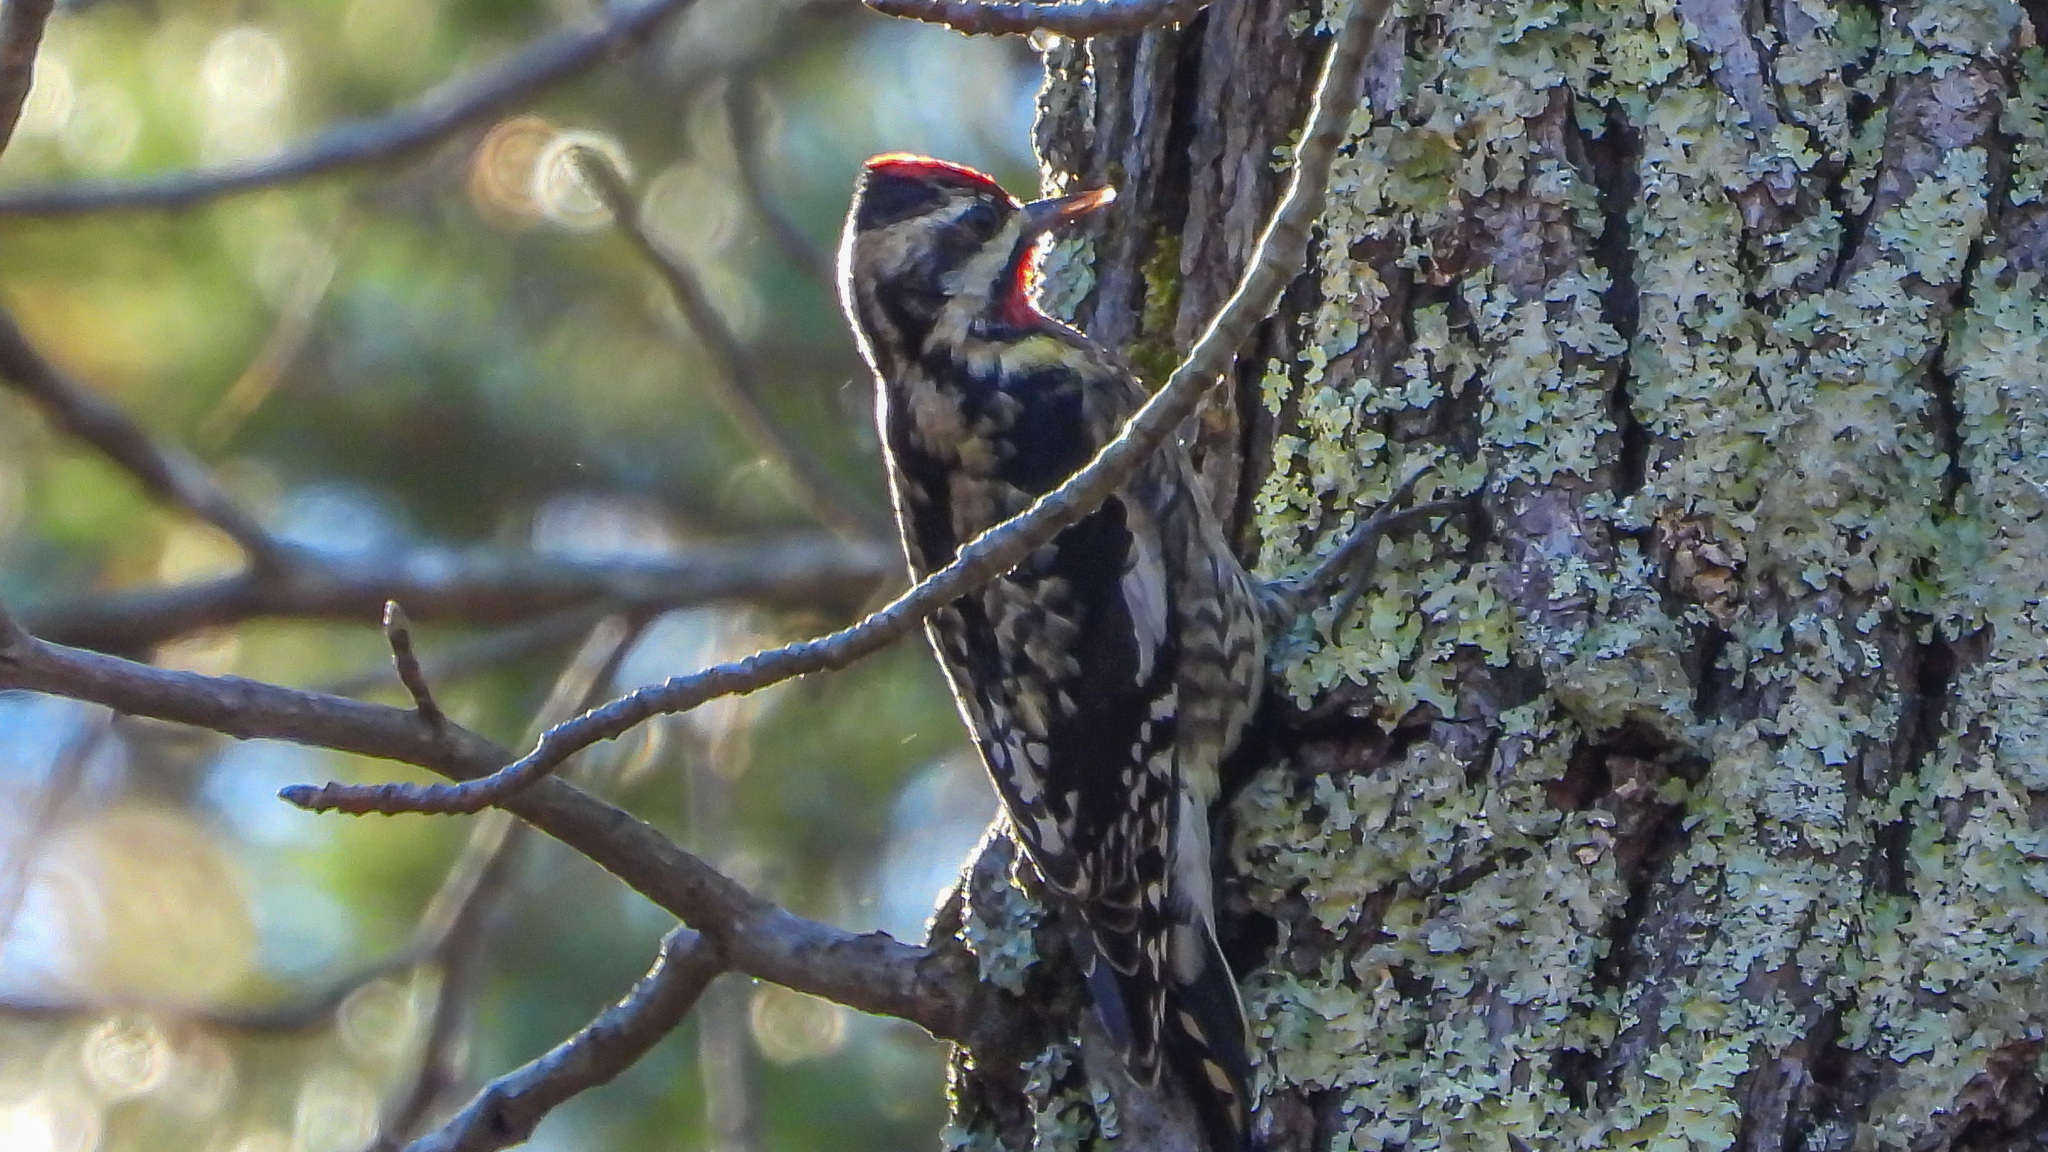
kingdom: Animalia
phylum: Chordata
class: Aves
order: Piciformes
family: Picidae
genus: Sphyrapicus
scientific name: Sphyrapicus varius
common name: Yellow-bellied sapsucker
